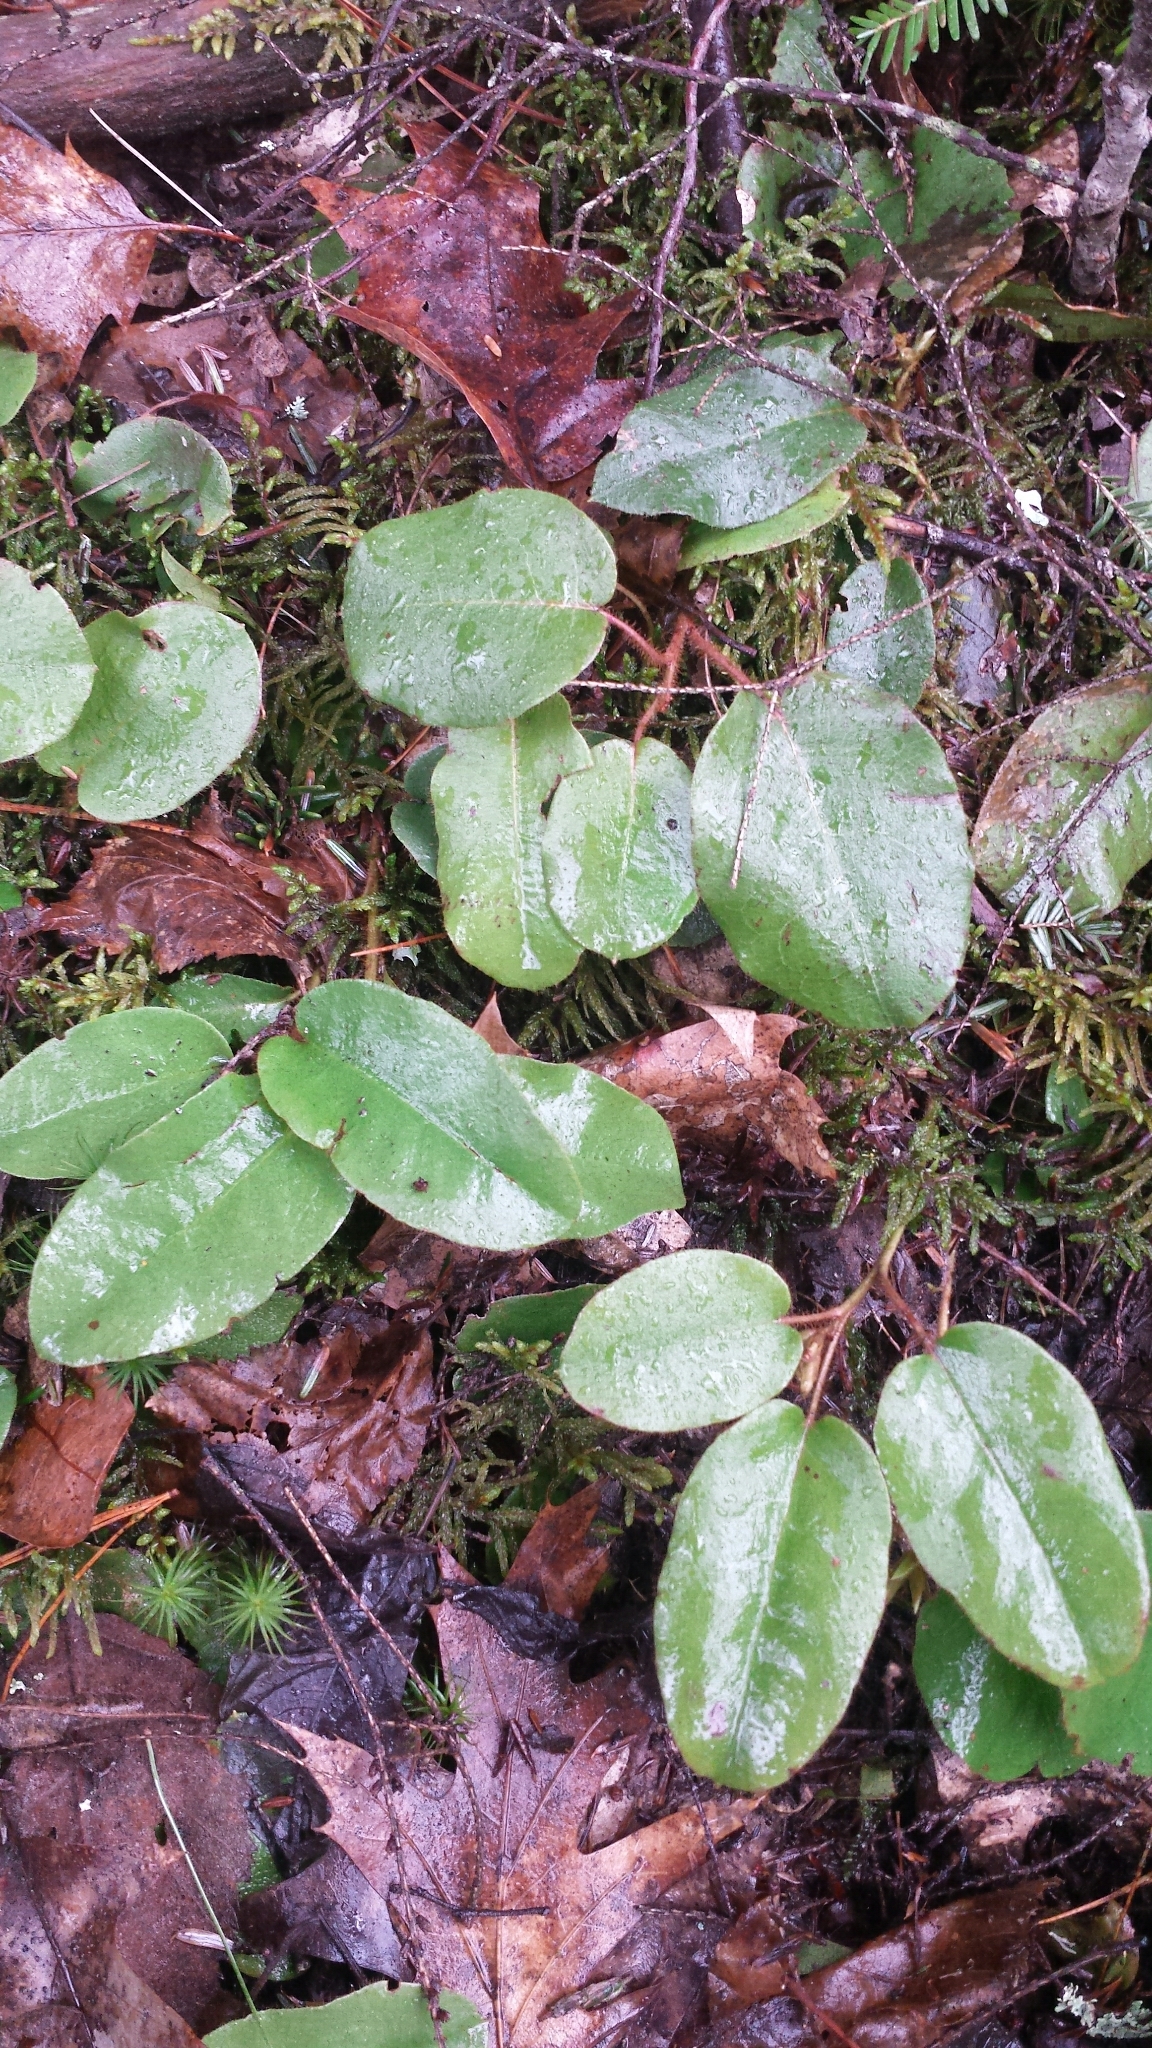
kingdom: Plantae
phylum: Tracheophyta
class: Magnoliopsida
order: Ericales
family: Ericaceae
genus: Epigaea
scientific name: Epigaea repens
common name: Gravelroot
